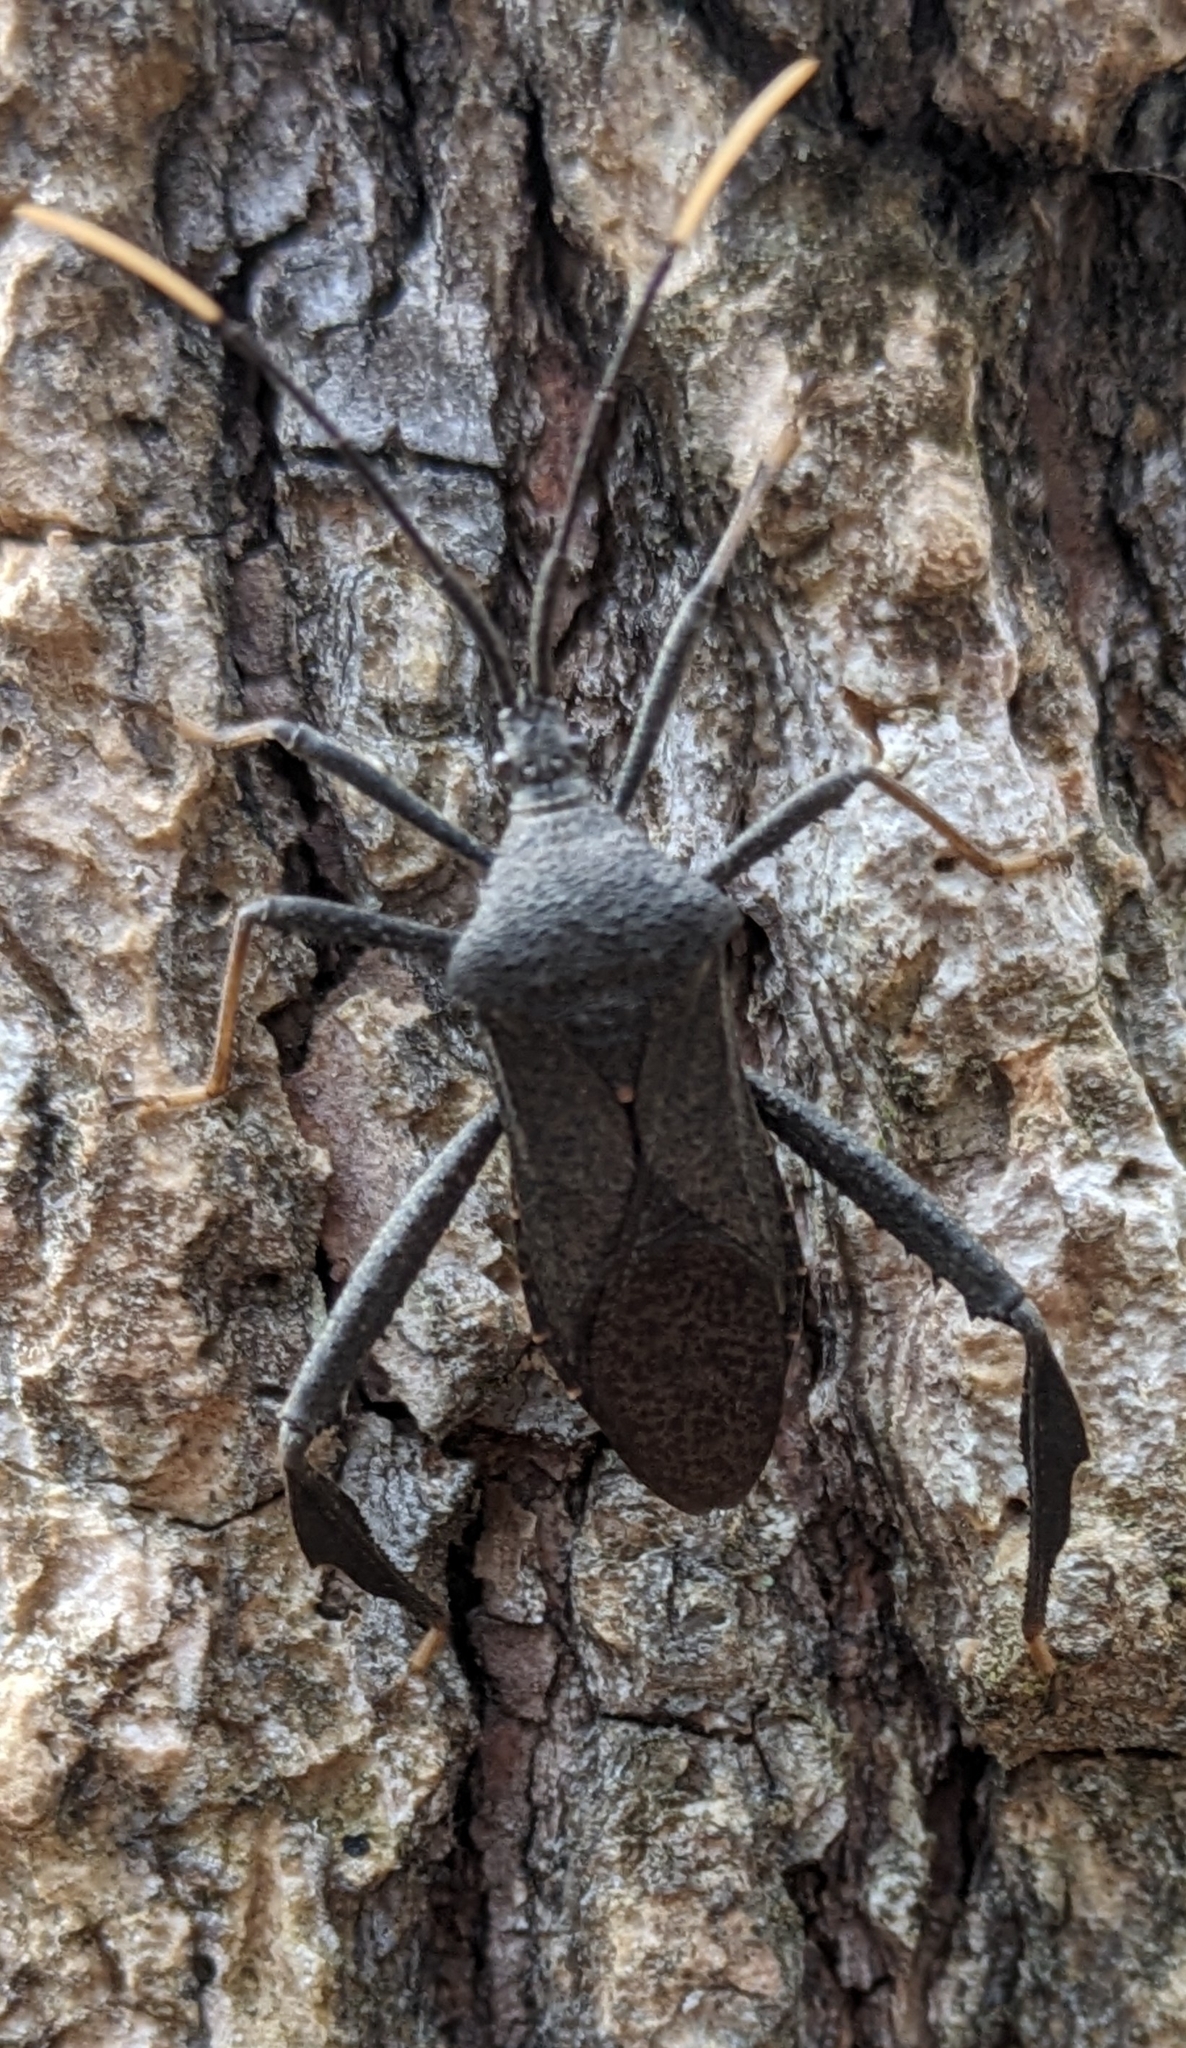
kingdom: Animalia
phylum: Arthropoda
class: Insecta
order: Hemiptera
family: Coreidae
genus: Acanthocephala
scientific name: Acanthocephala terminalis
